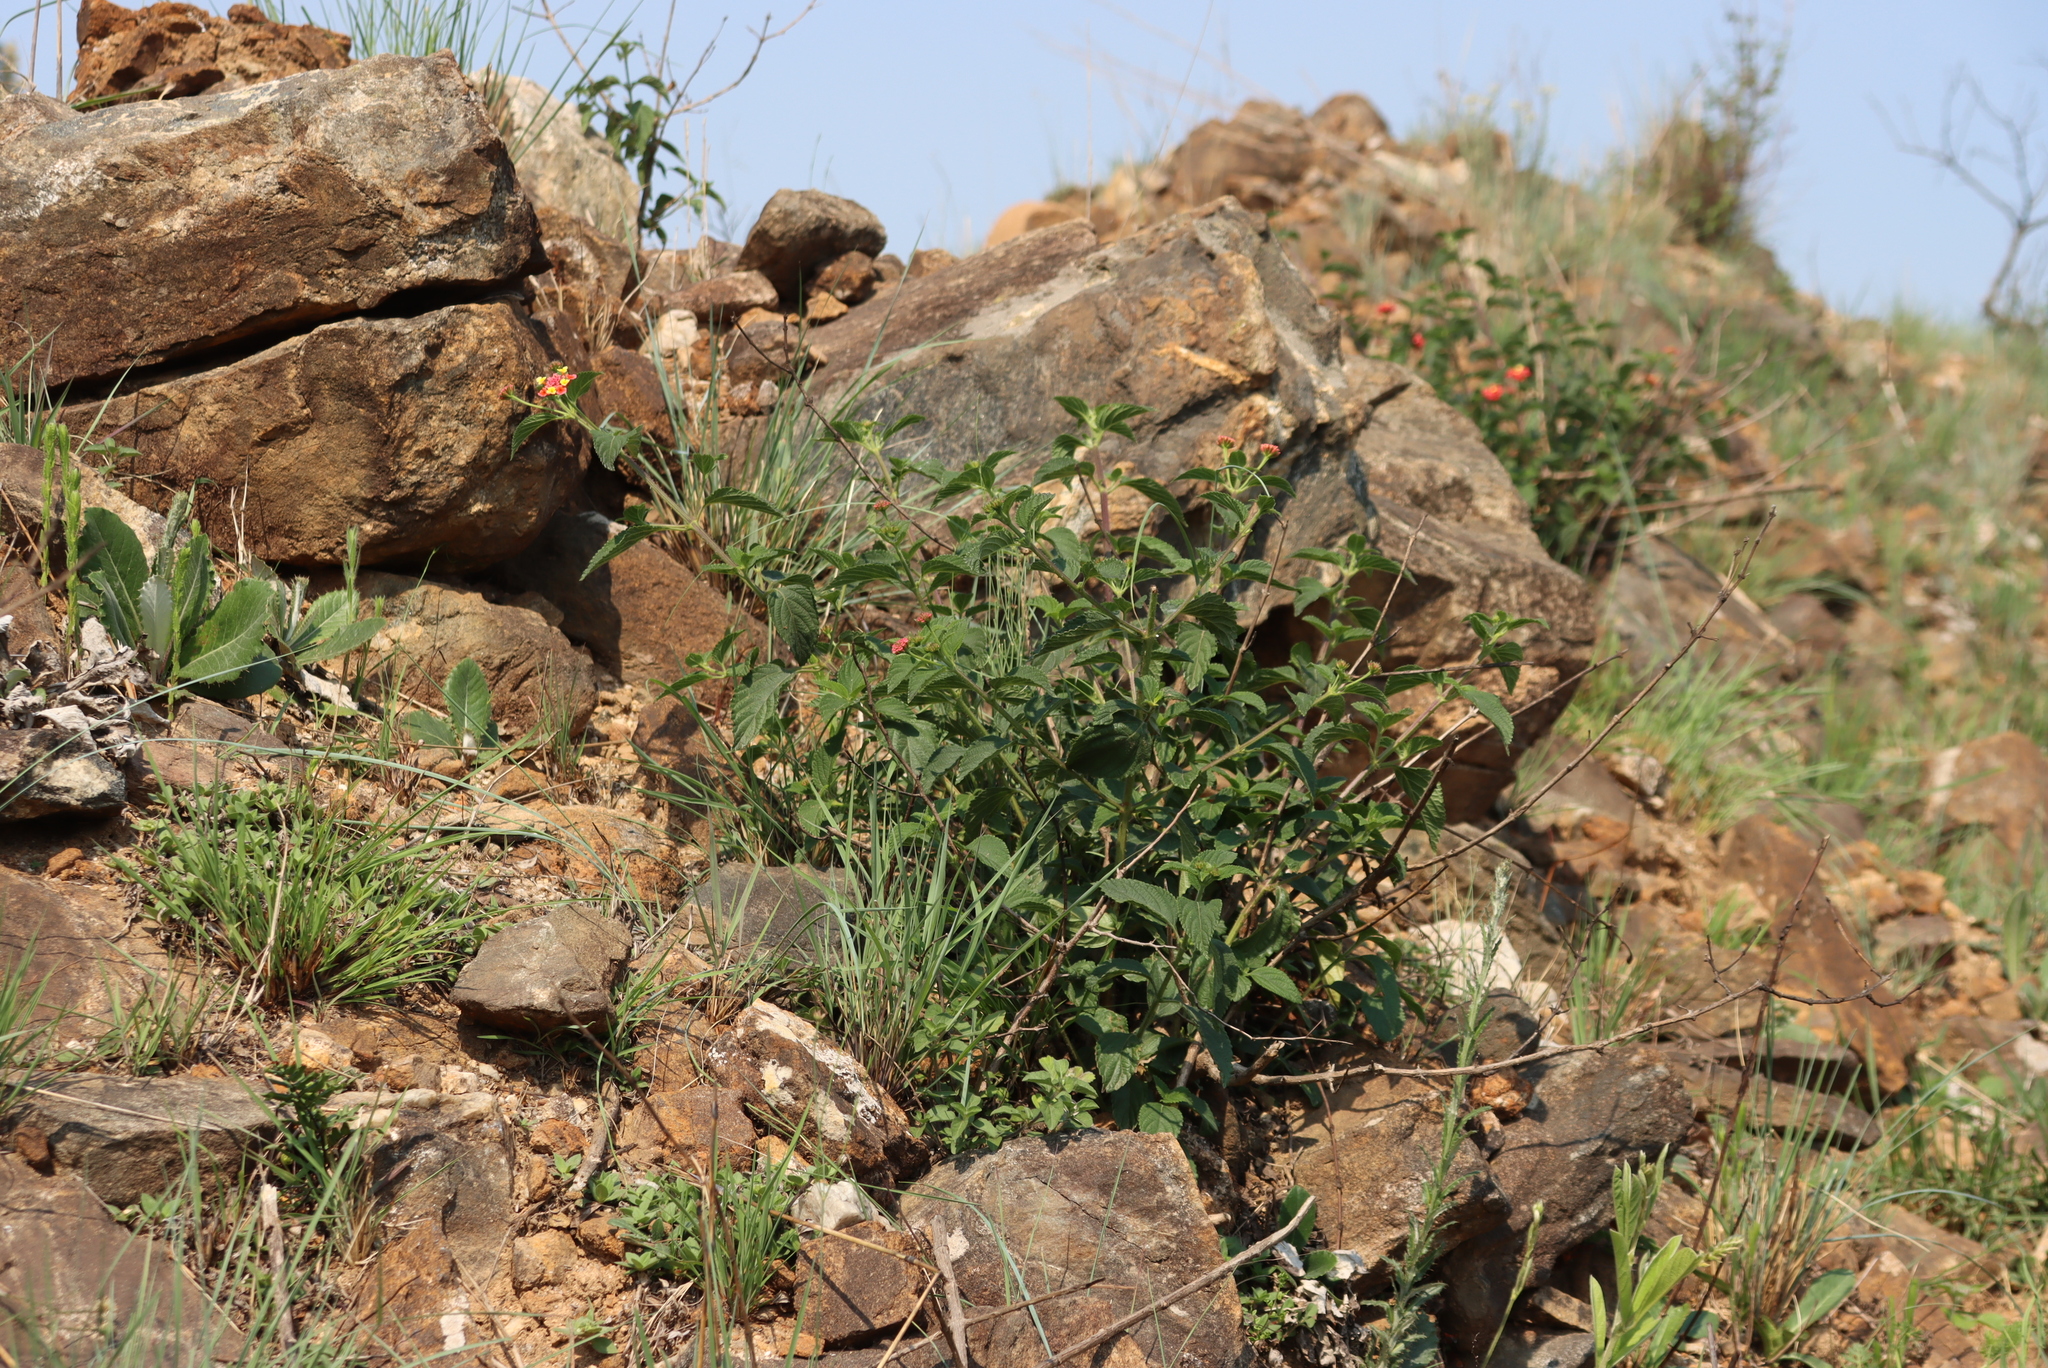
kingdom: Plantae
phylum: Tracheophyta
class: Magnoliopsida
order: Lamiales
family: Verbenaceae
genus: Lantana
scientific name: Lantana camara
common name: Lantana
